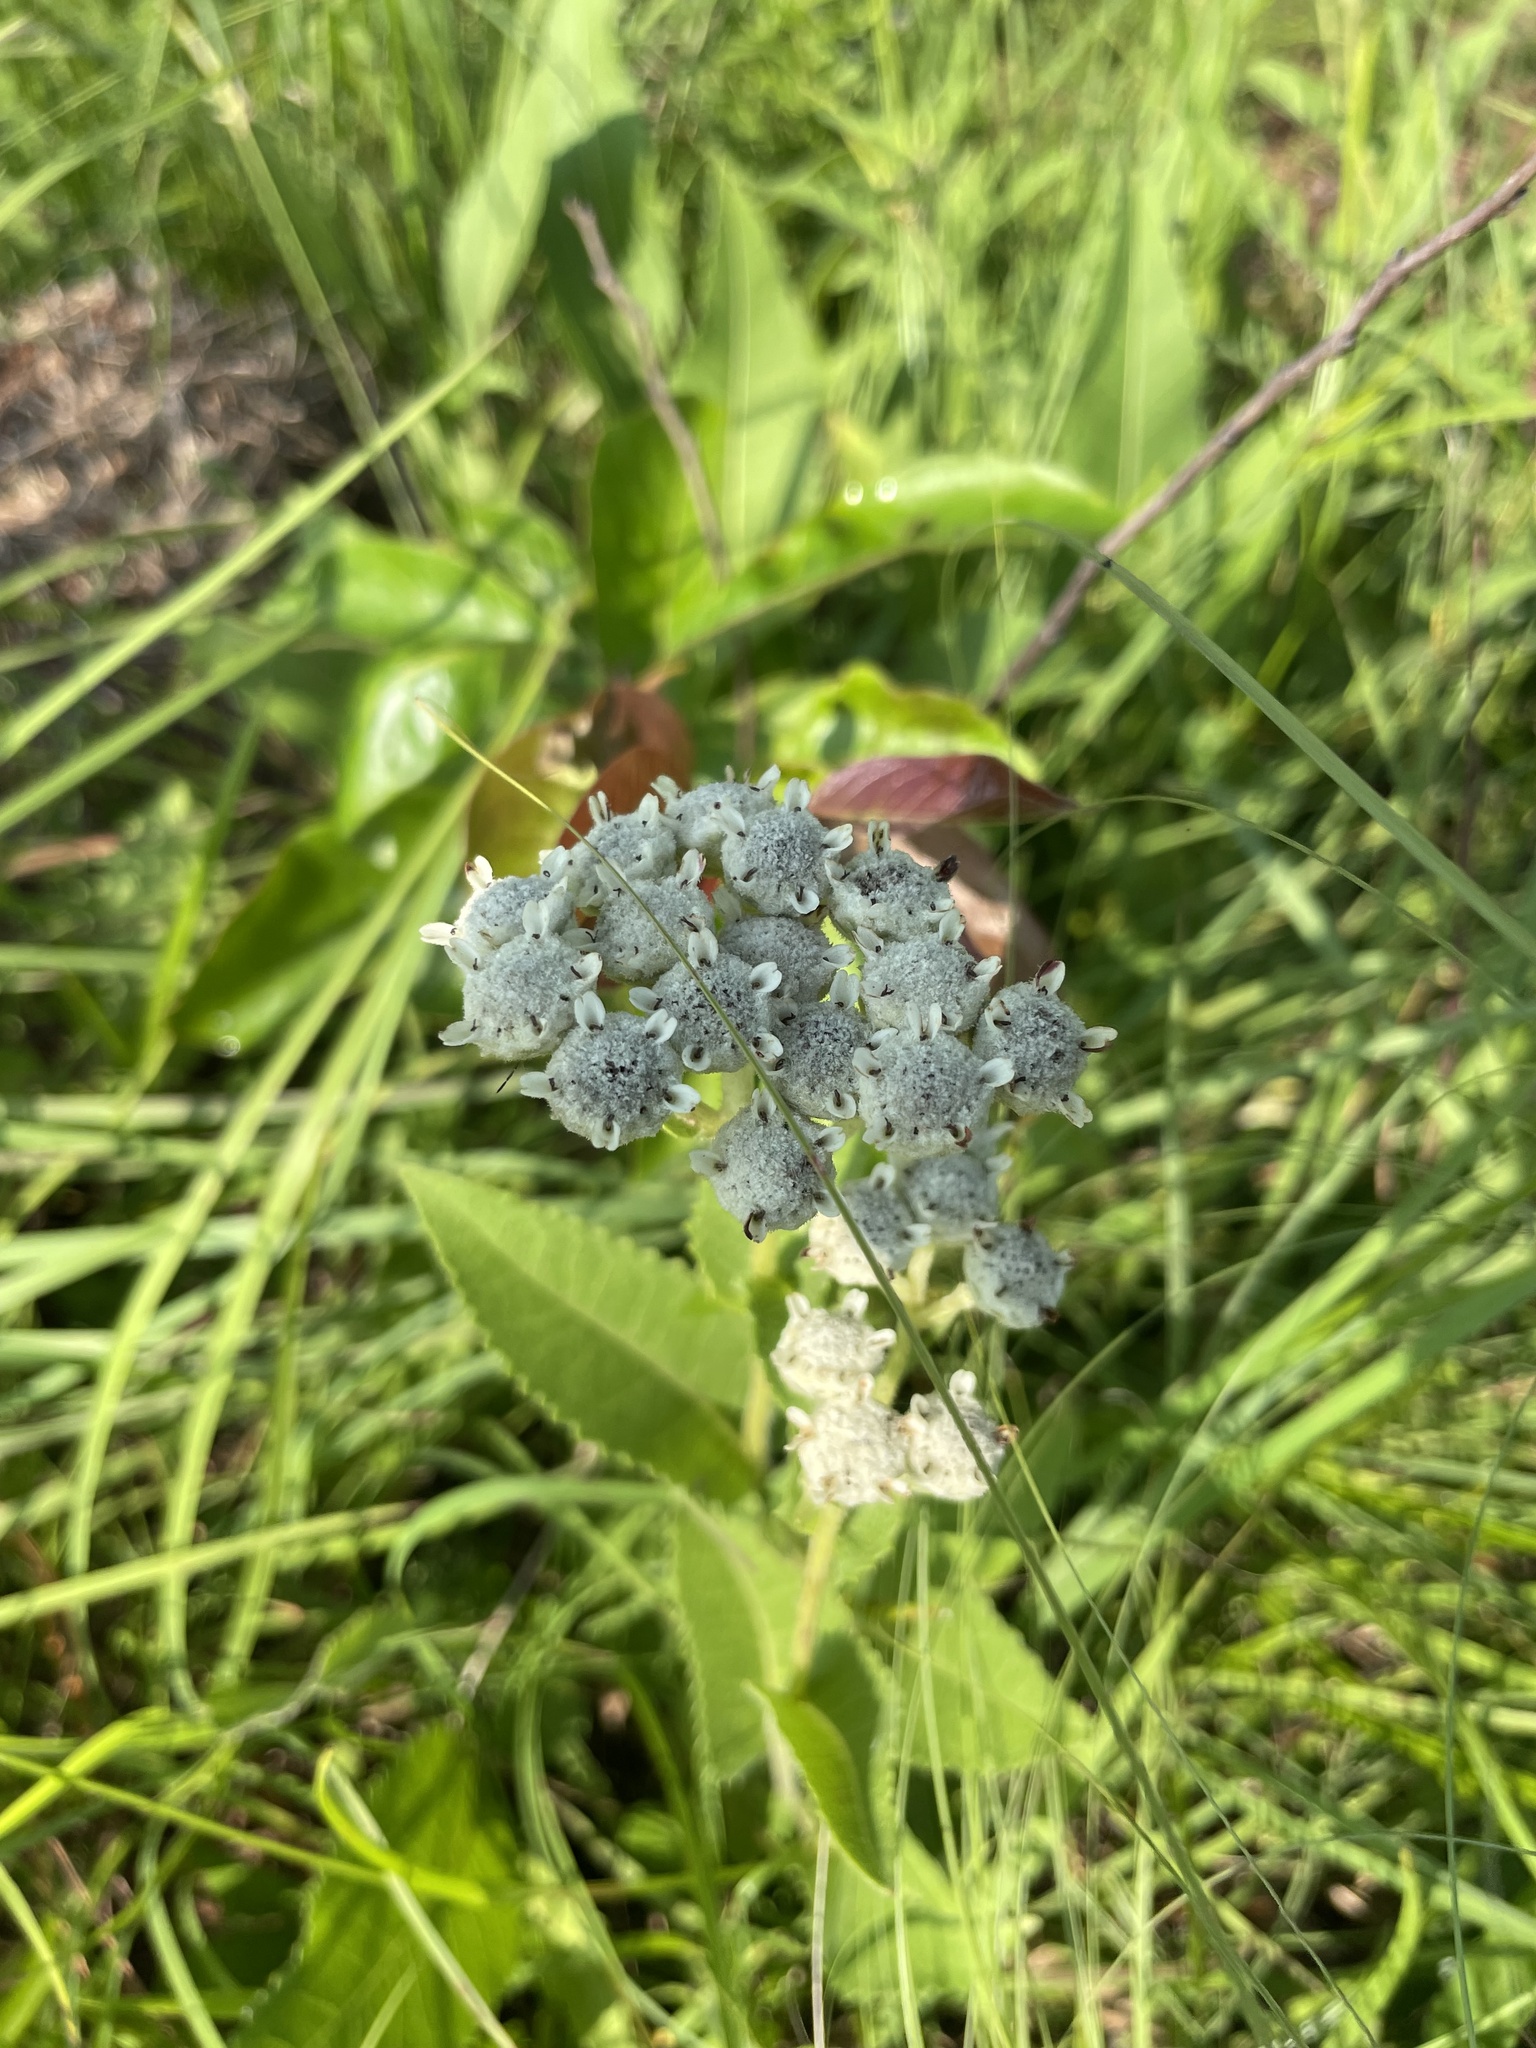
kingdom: Plantae
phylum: Tracheophyta
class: Magnoliopsida
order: Asterales
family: Asteraceae
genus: Parthenium
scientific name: Parthenium hispidum
